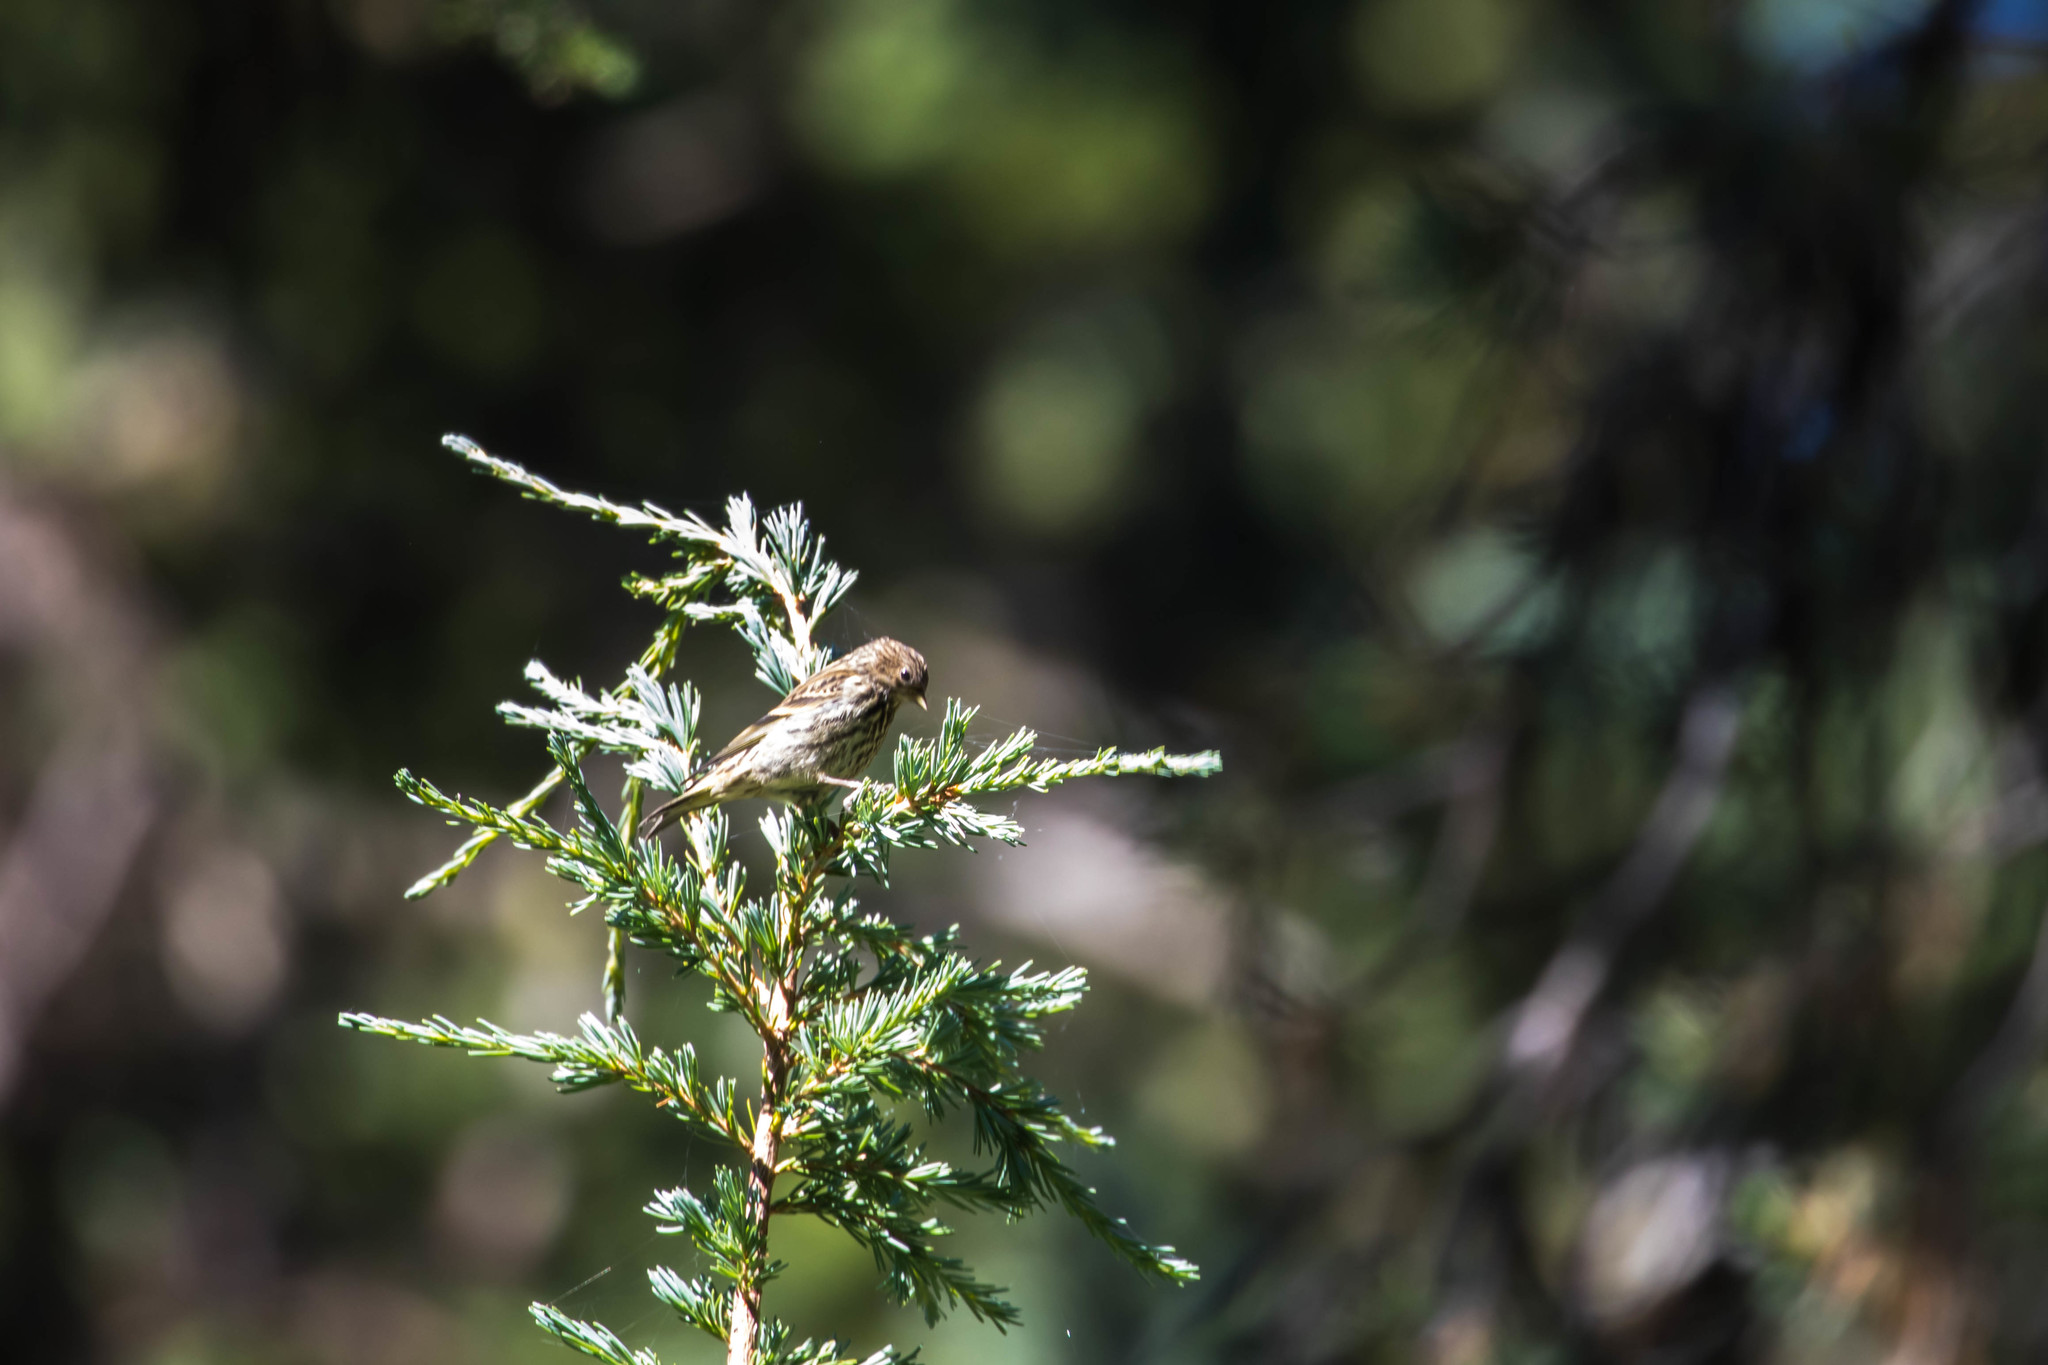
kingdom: Animalia
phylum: Chordata
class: Aves
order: Passeriformes
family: Fringillidae
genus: Spinus
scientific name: Spinus pinus
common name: Pine siskin
